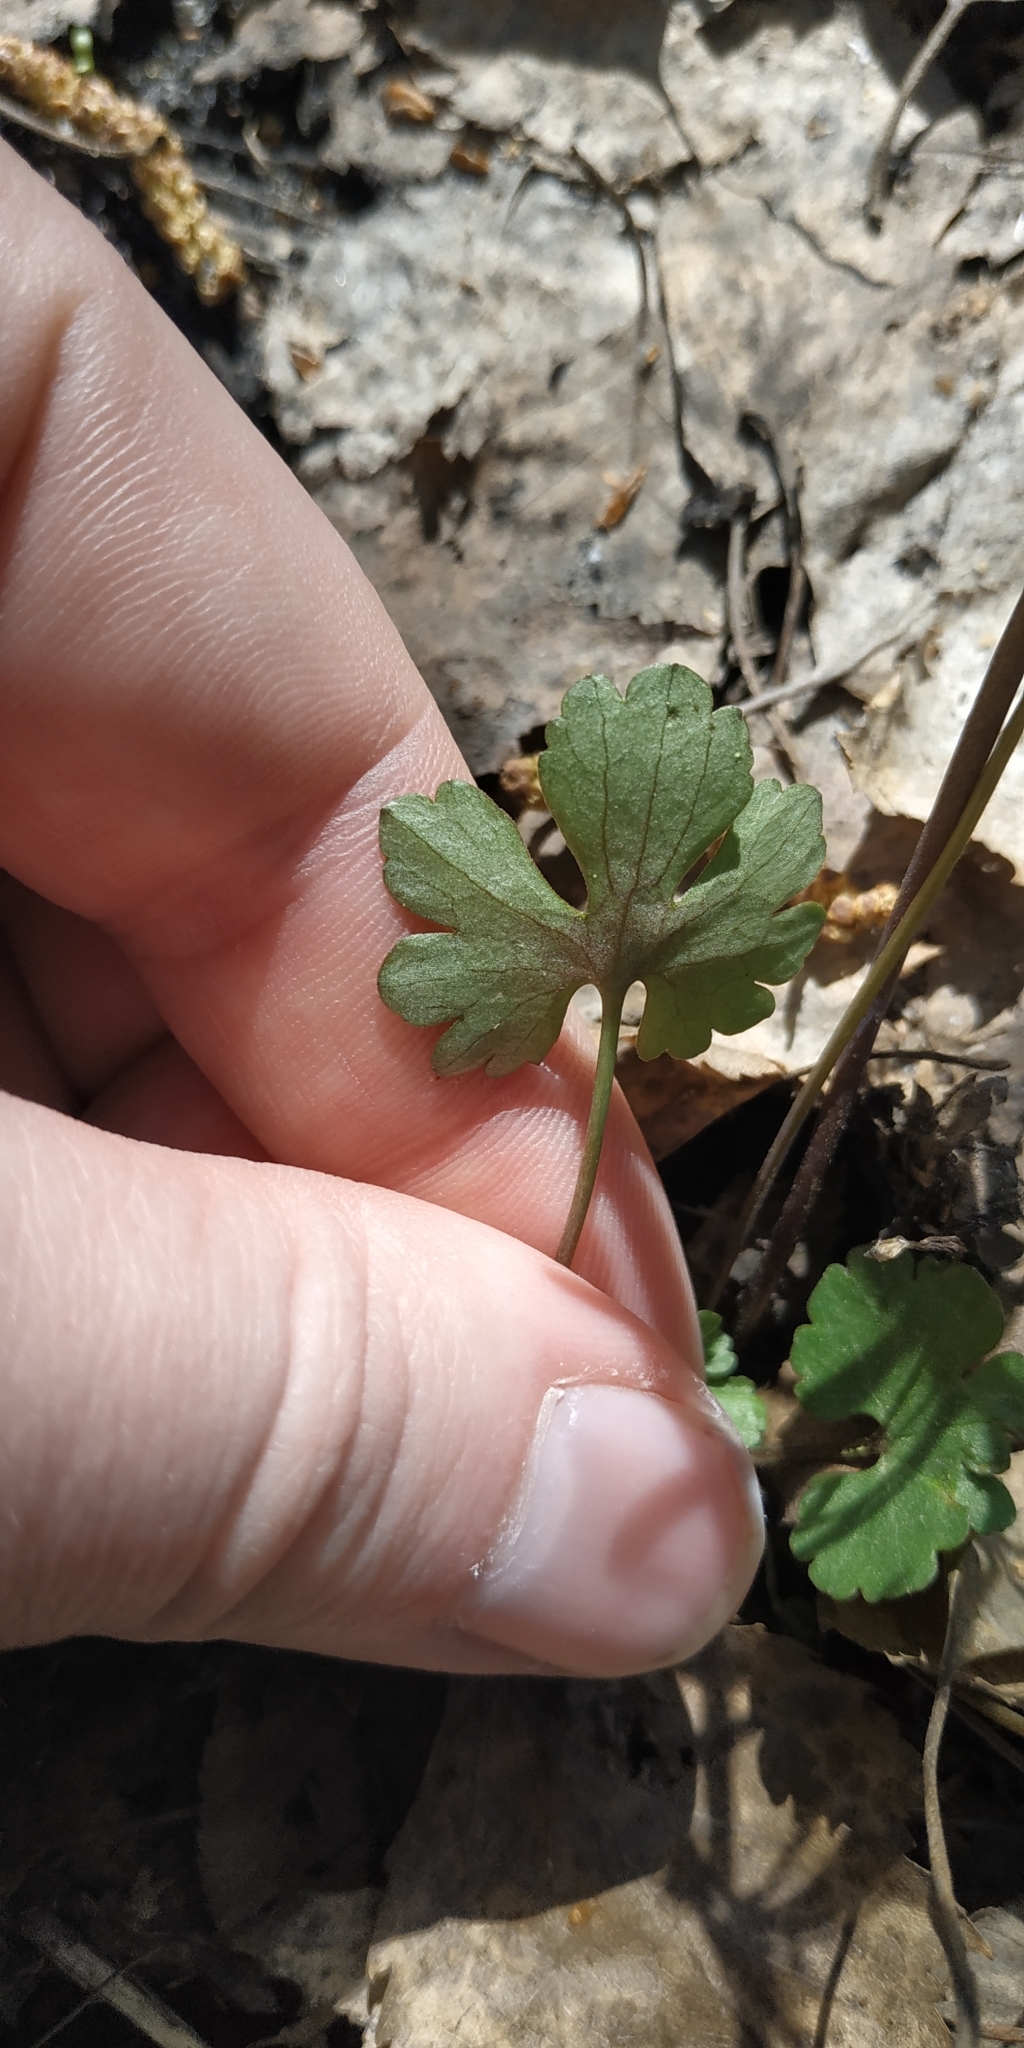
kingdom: Plantae
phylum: Tracheophyta
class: Magnoliopsida
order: Ranunculales
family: Ranunculaceae
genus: Ranunculus
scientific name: Ranunculus auricomus
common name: Goldilocks buttercup
